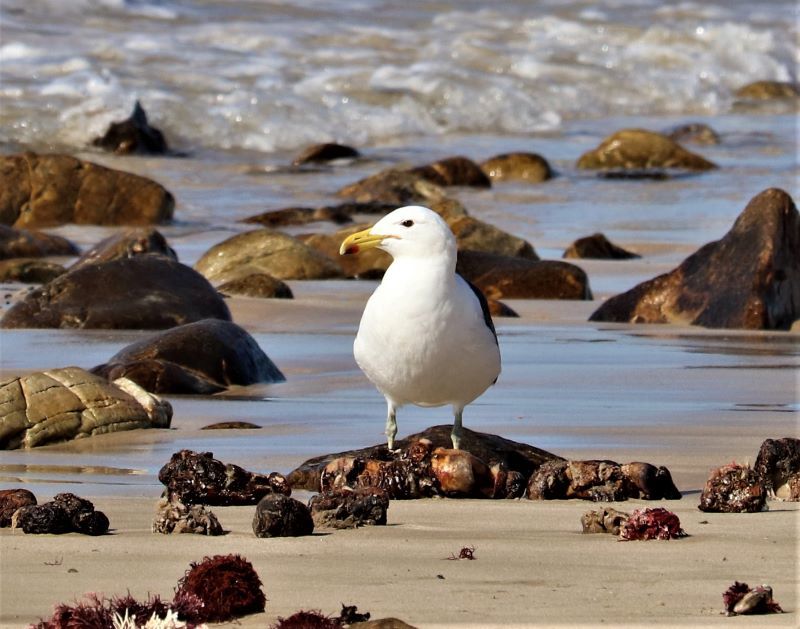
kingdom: Animalia
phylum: Chordata
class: Aves
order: Charadriiformes
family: Laridae
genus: Larus
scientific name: Larus dominicanus
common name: Kelp gull
